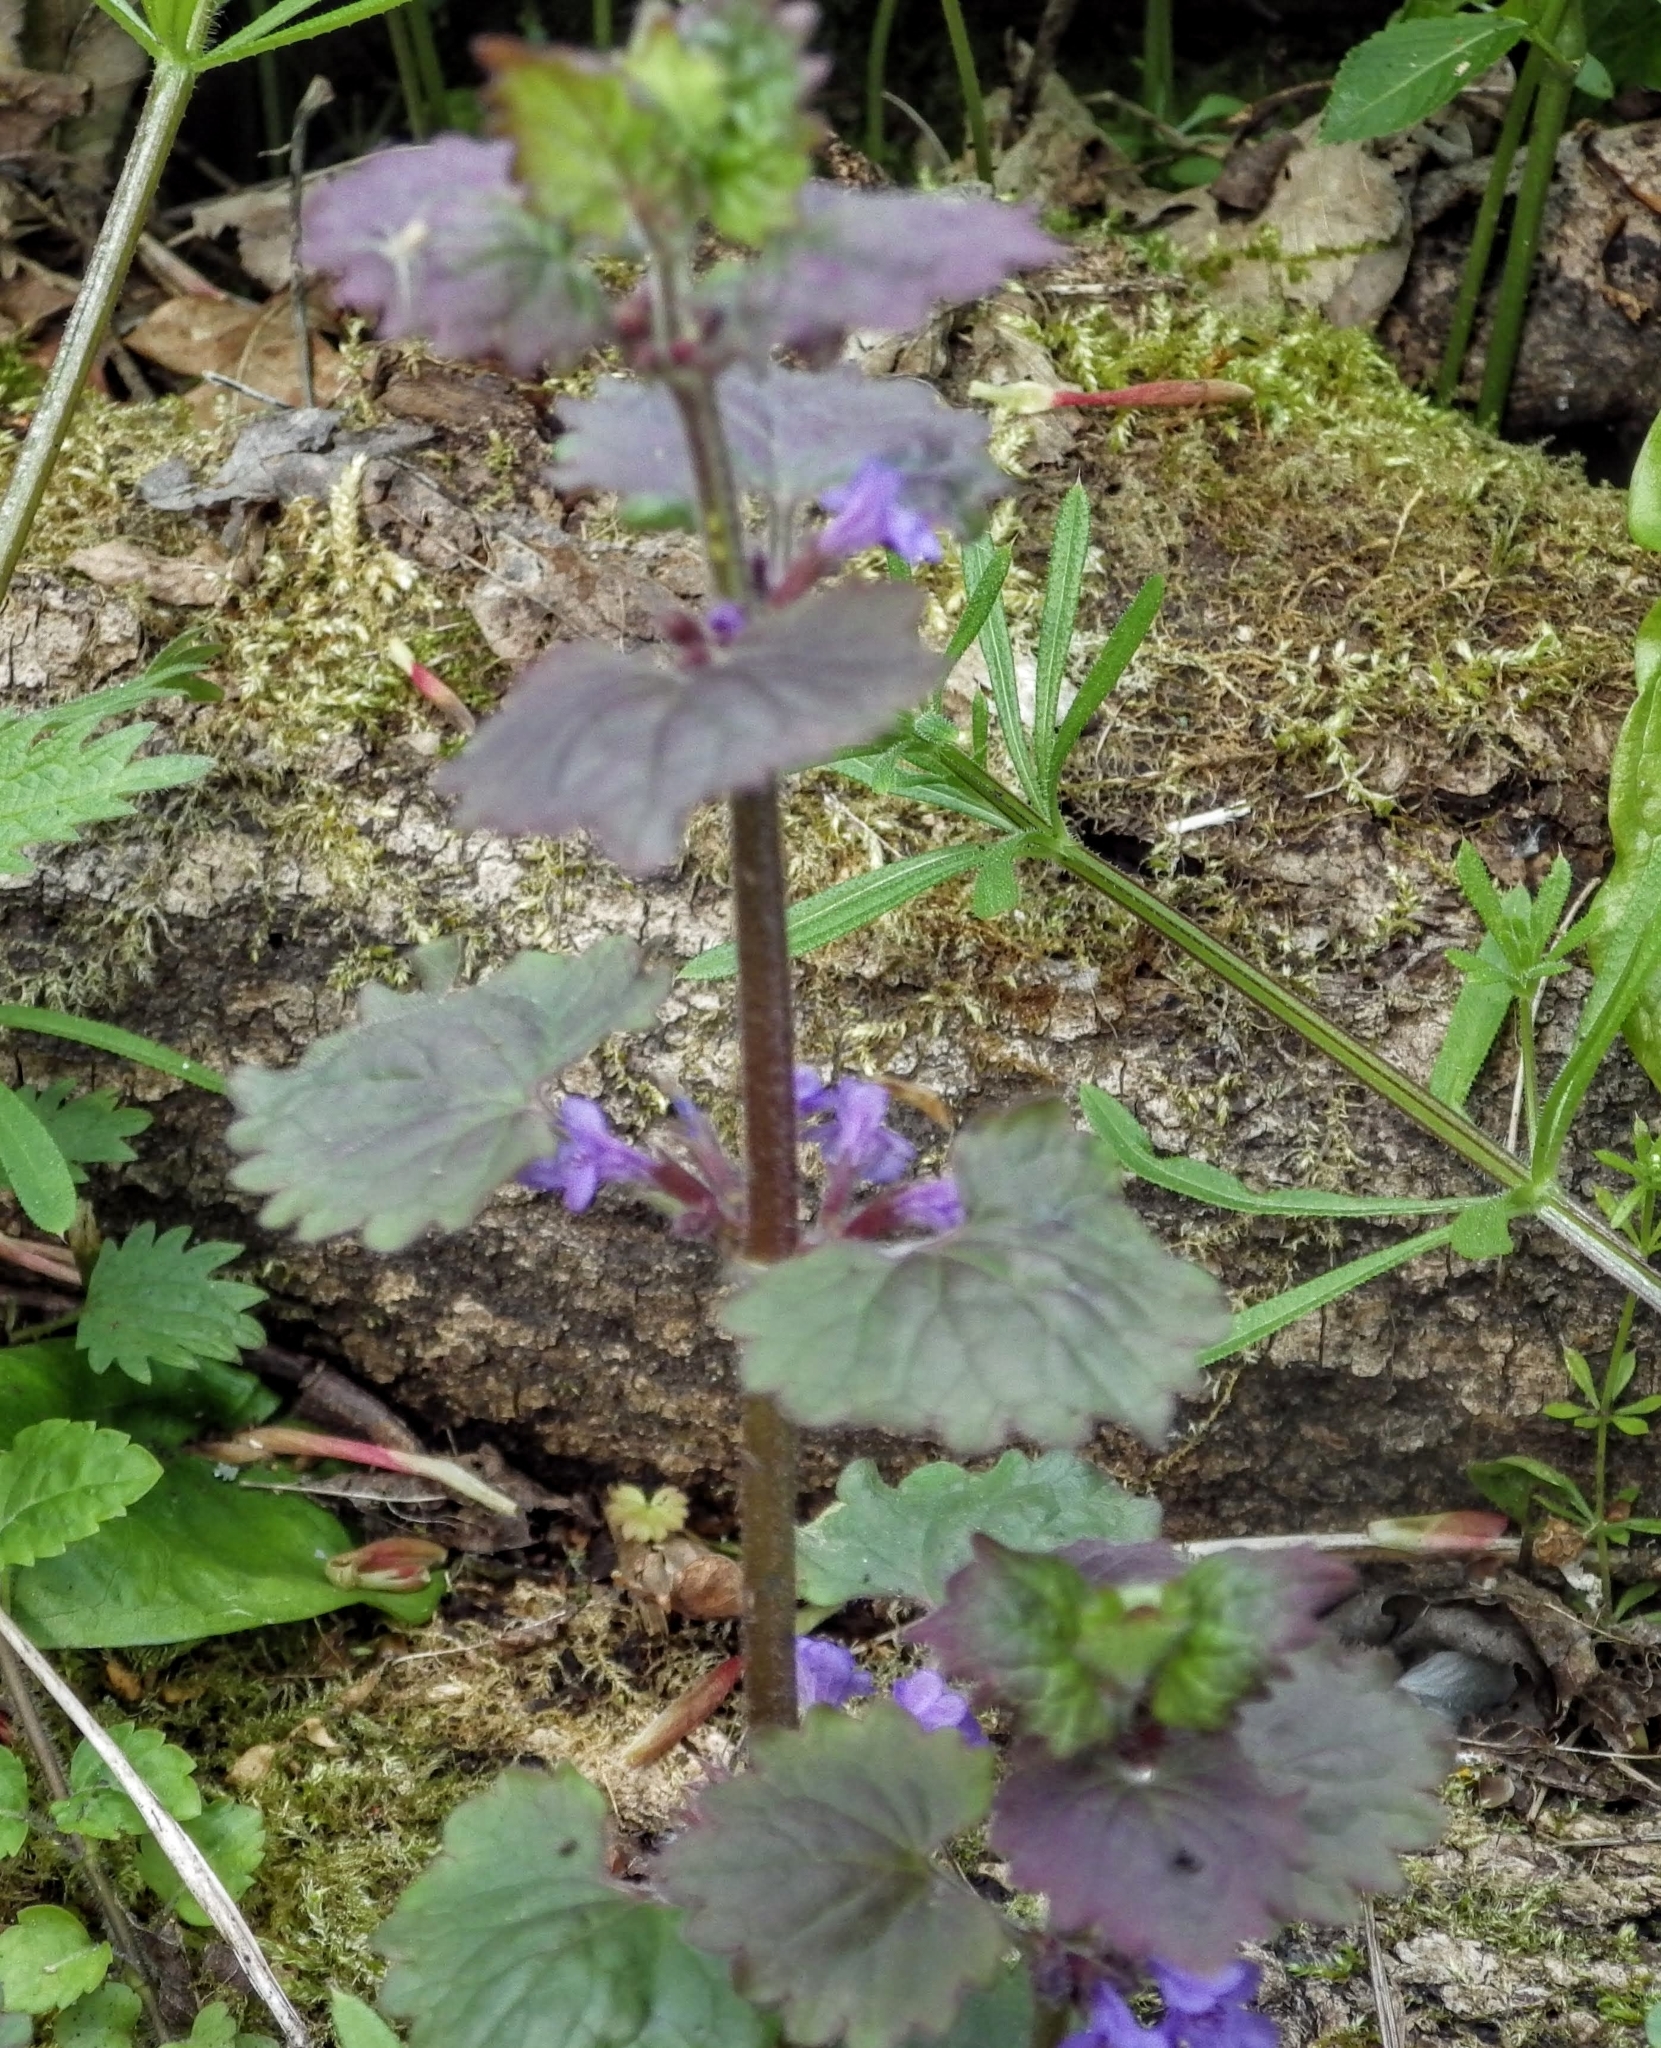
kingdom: Plantae
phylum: Tracheophyta
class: Magnoliopsida
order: Lamiales
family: Lamiaceae
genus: Glechoma
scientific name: Glechoma hederacea
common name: Ground ivy
